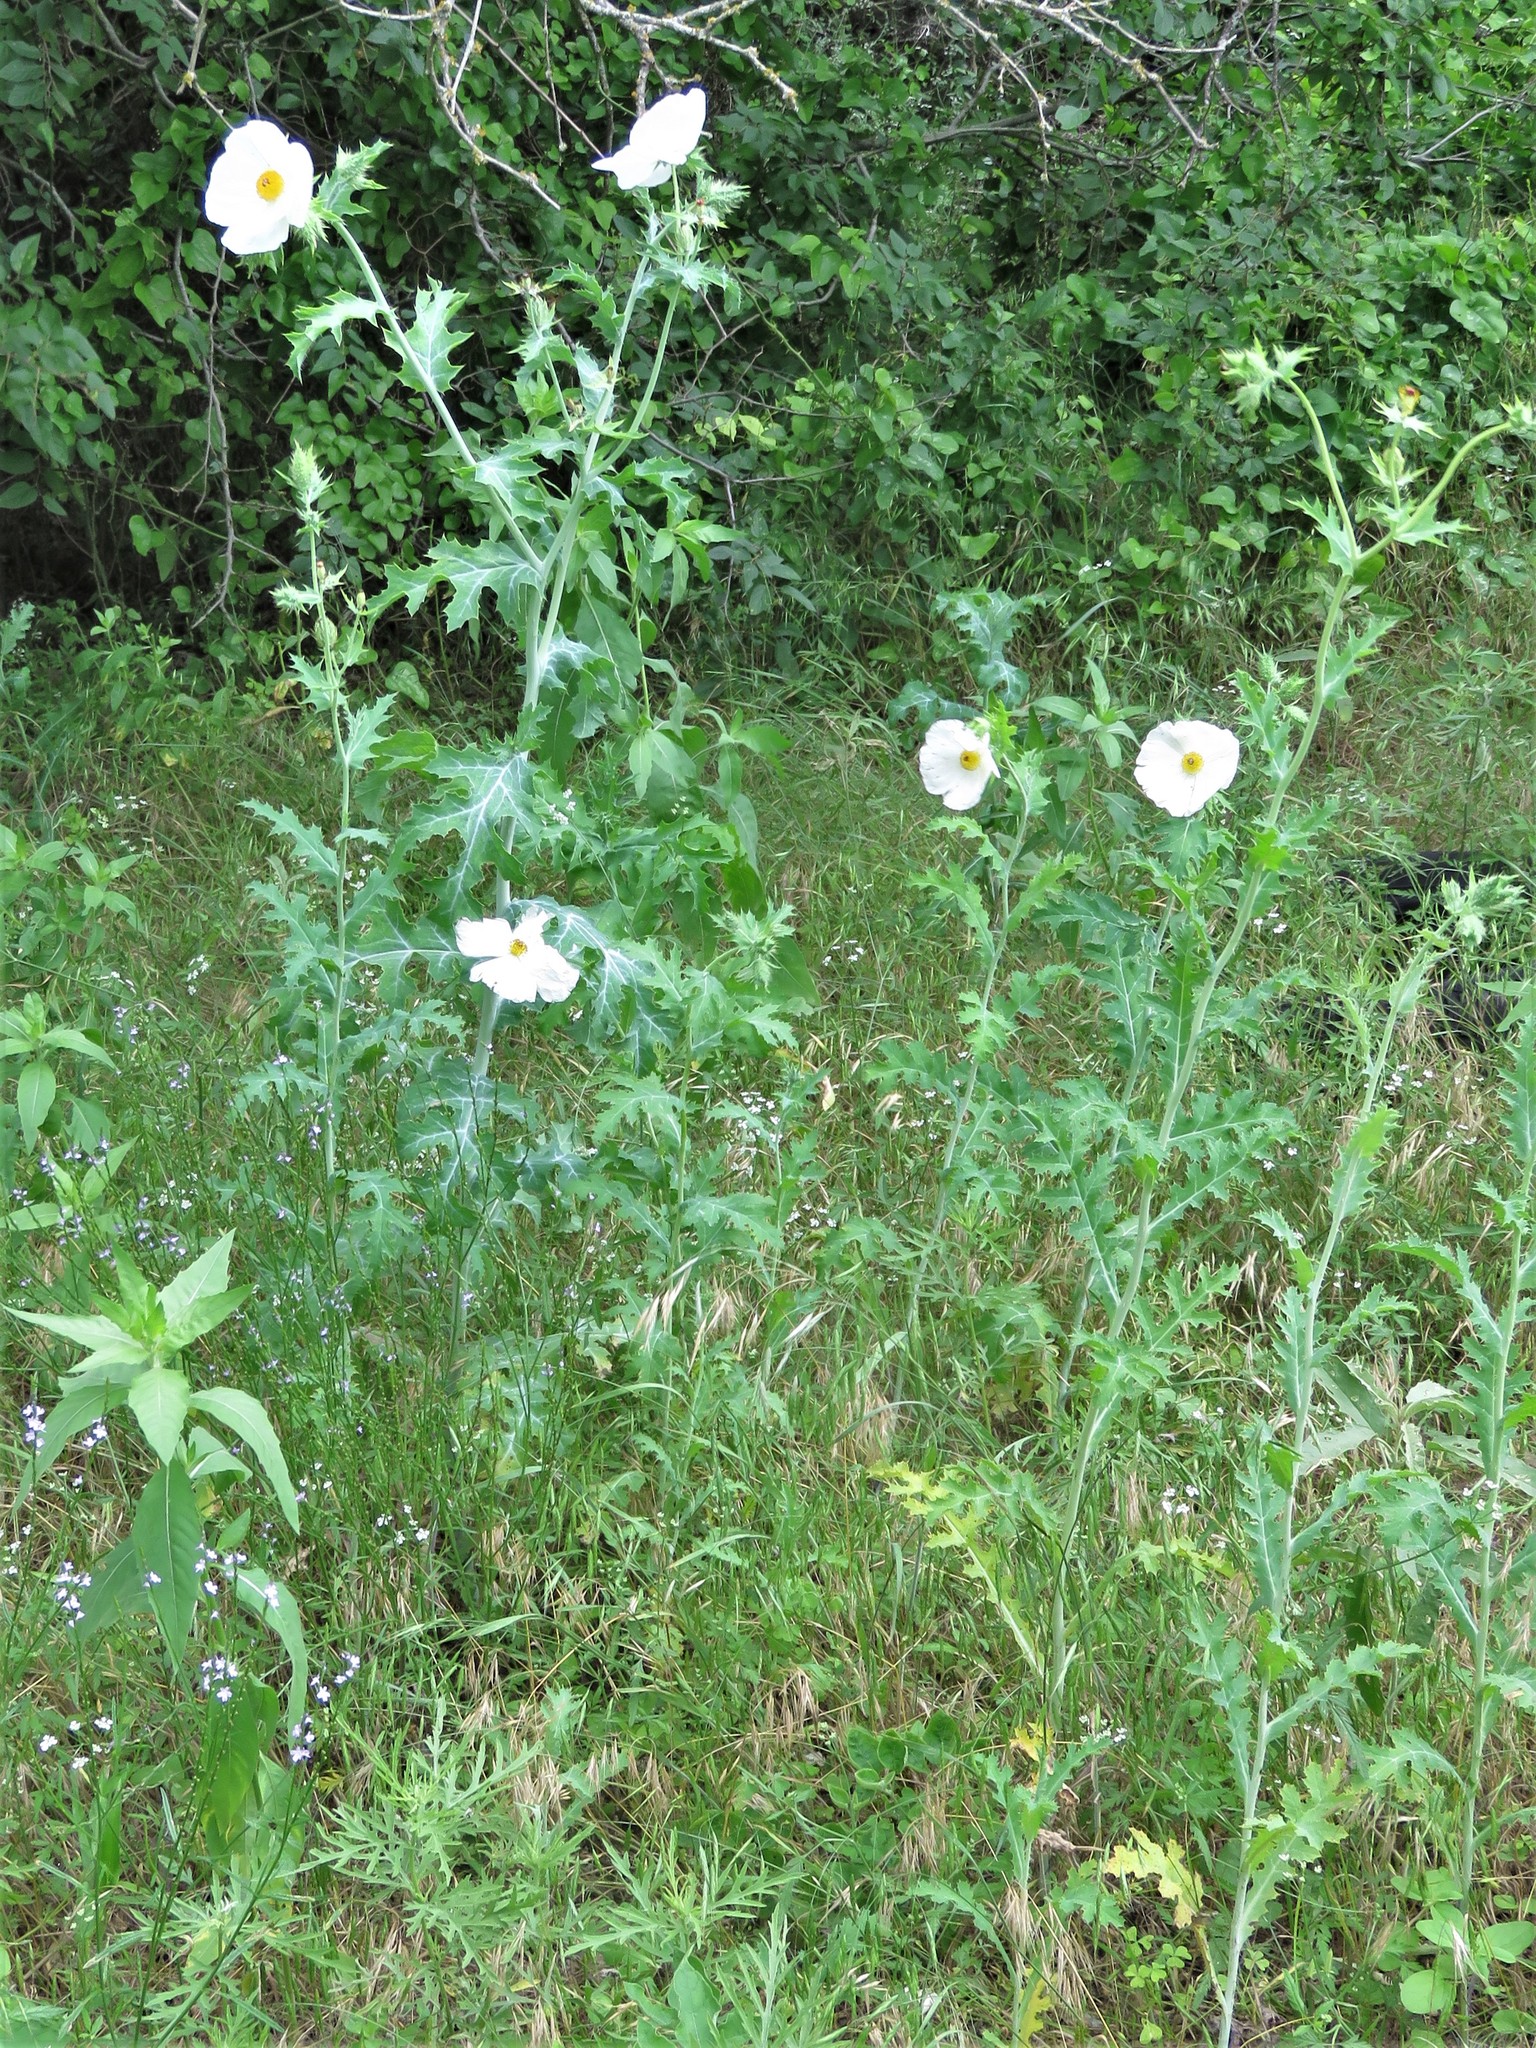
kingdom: Plantae
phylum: Tracheophyta
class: Magnoliopsida
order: Ranunculales
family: Papaveraceae
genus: Argemone
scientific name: Argemone albiflora
